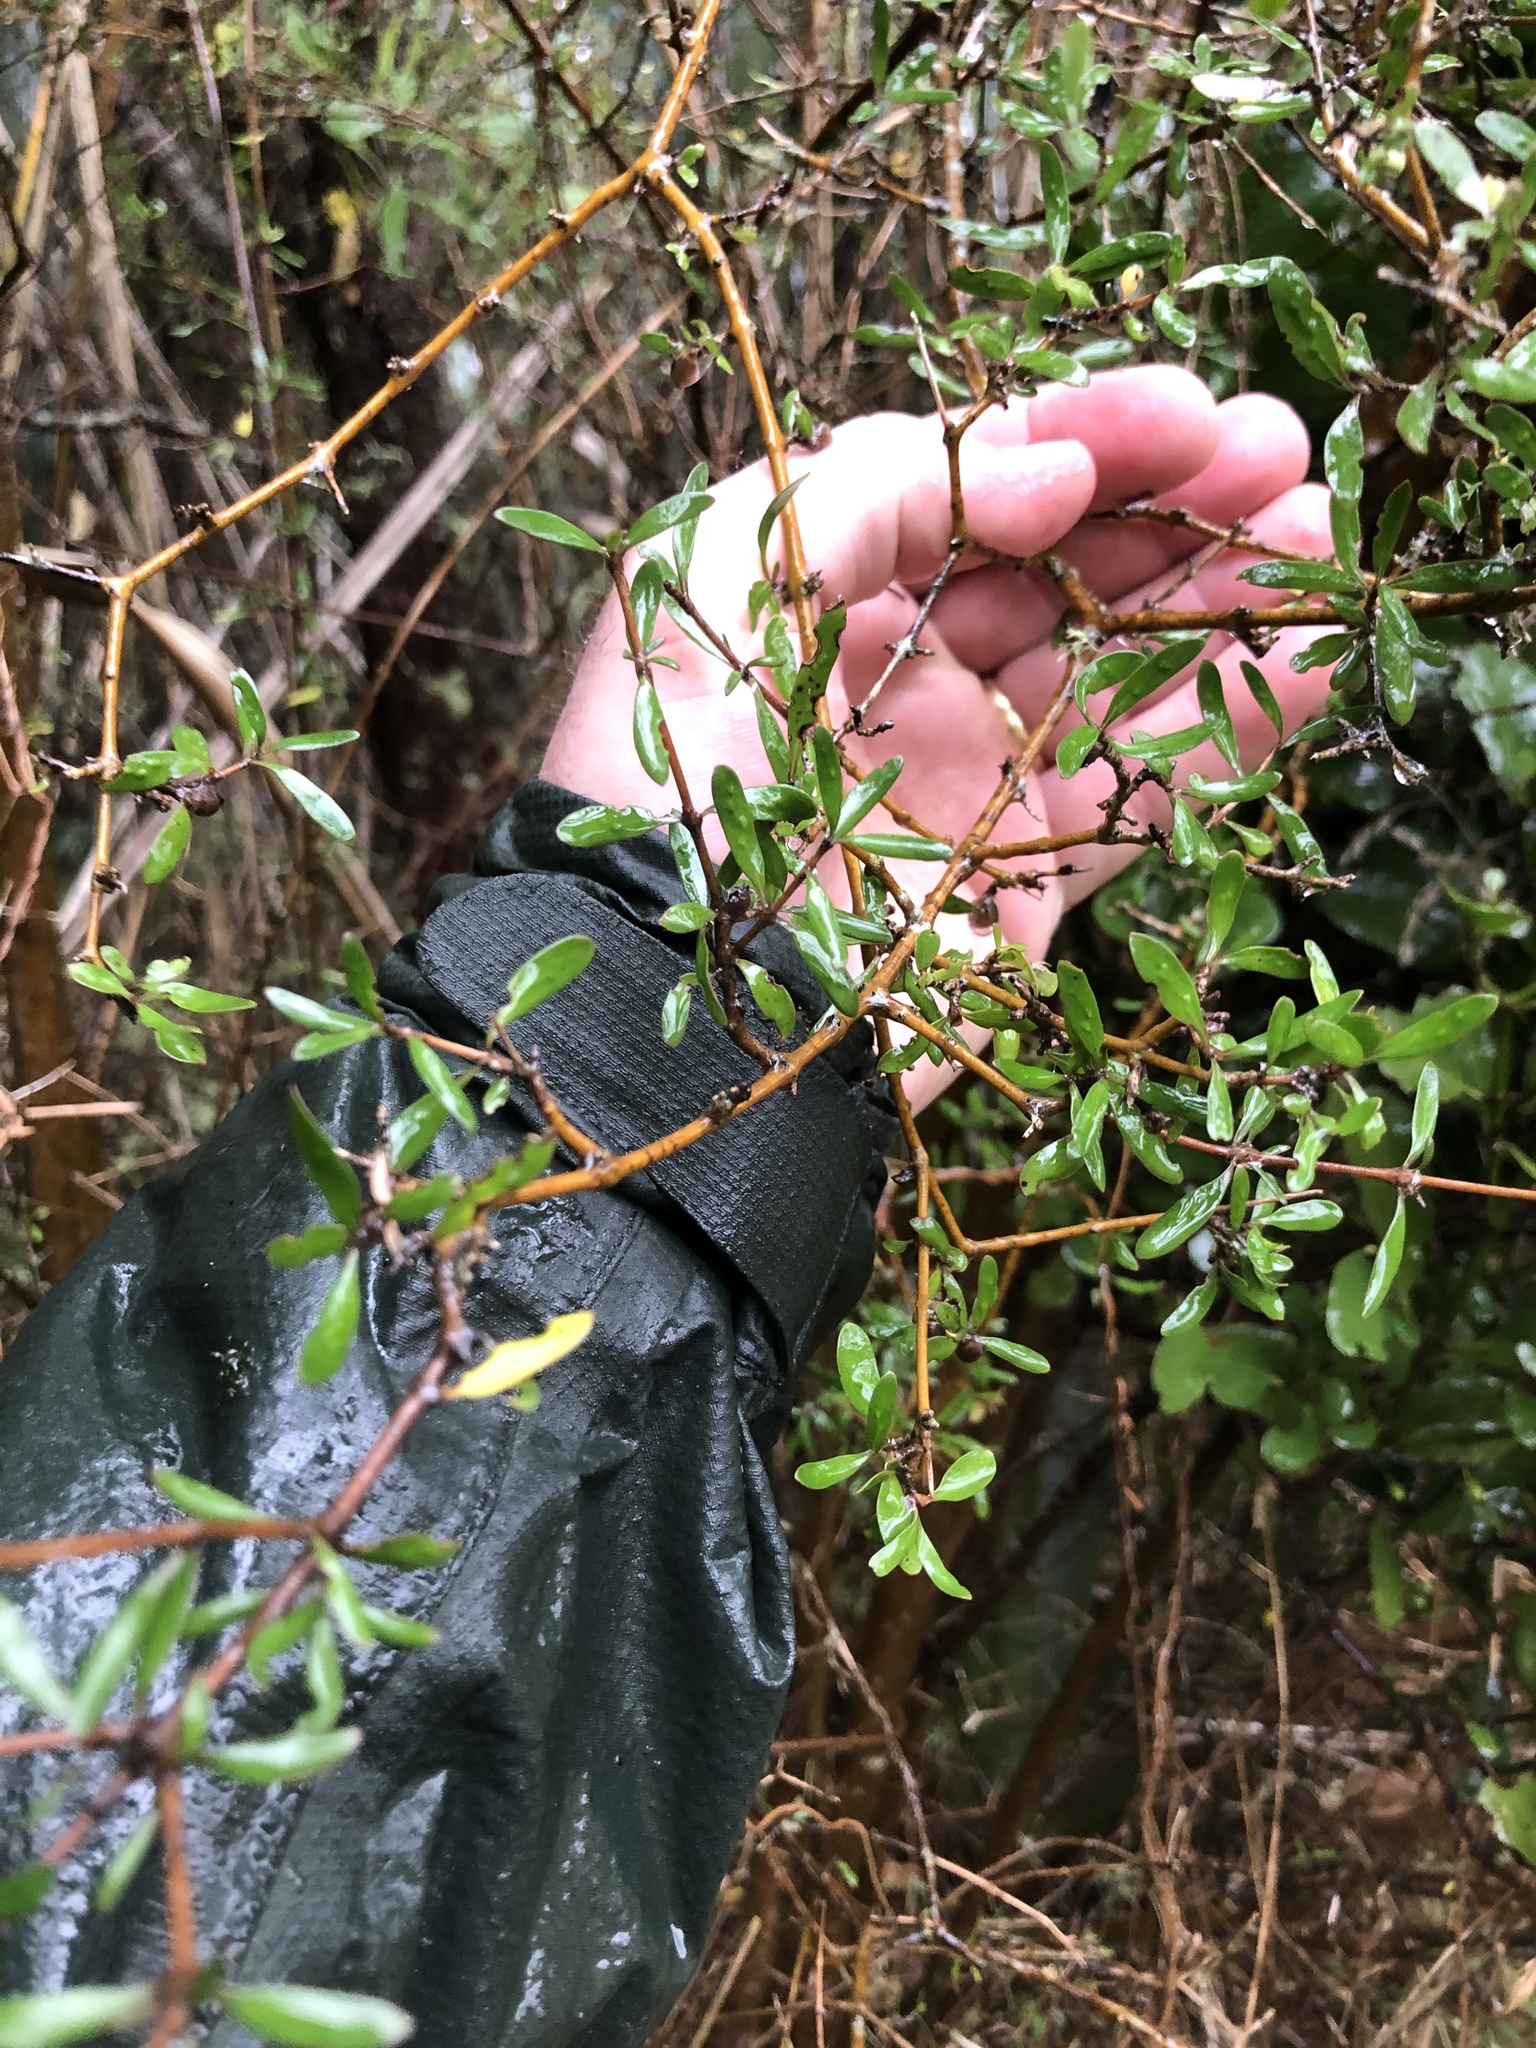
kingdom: Plantae
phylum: Tracheophyta
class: Magnoliopsida
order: Gentianales
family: Rubiaceae
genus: Coprosma
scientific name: Coprosma propinqua
